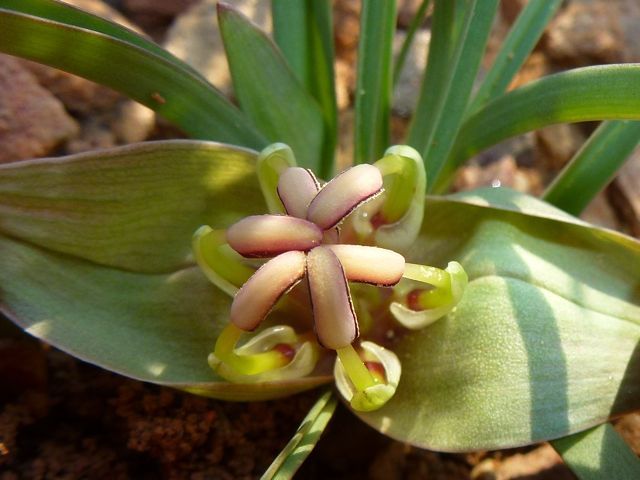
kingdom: Plantae
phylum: Tracheophyta
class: Liliopsida
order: Liliales
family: Colchicaceae
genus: Colchicum
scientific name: Colchicum burchellii
